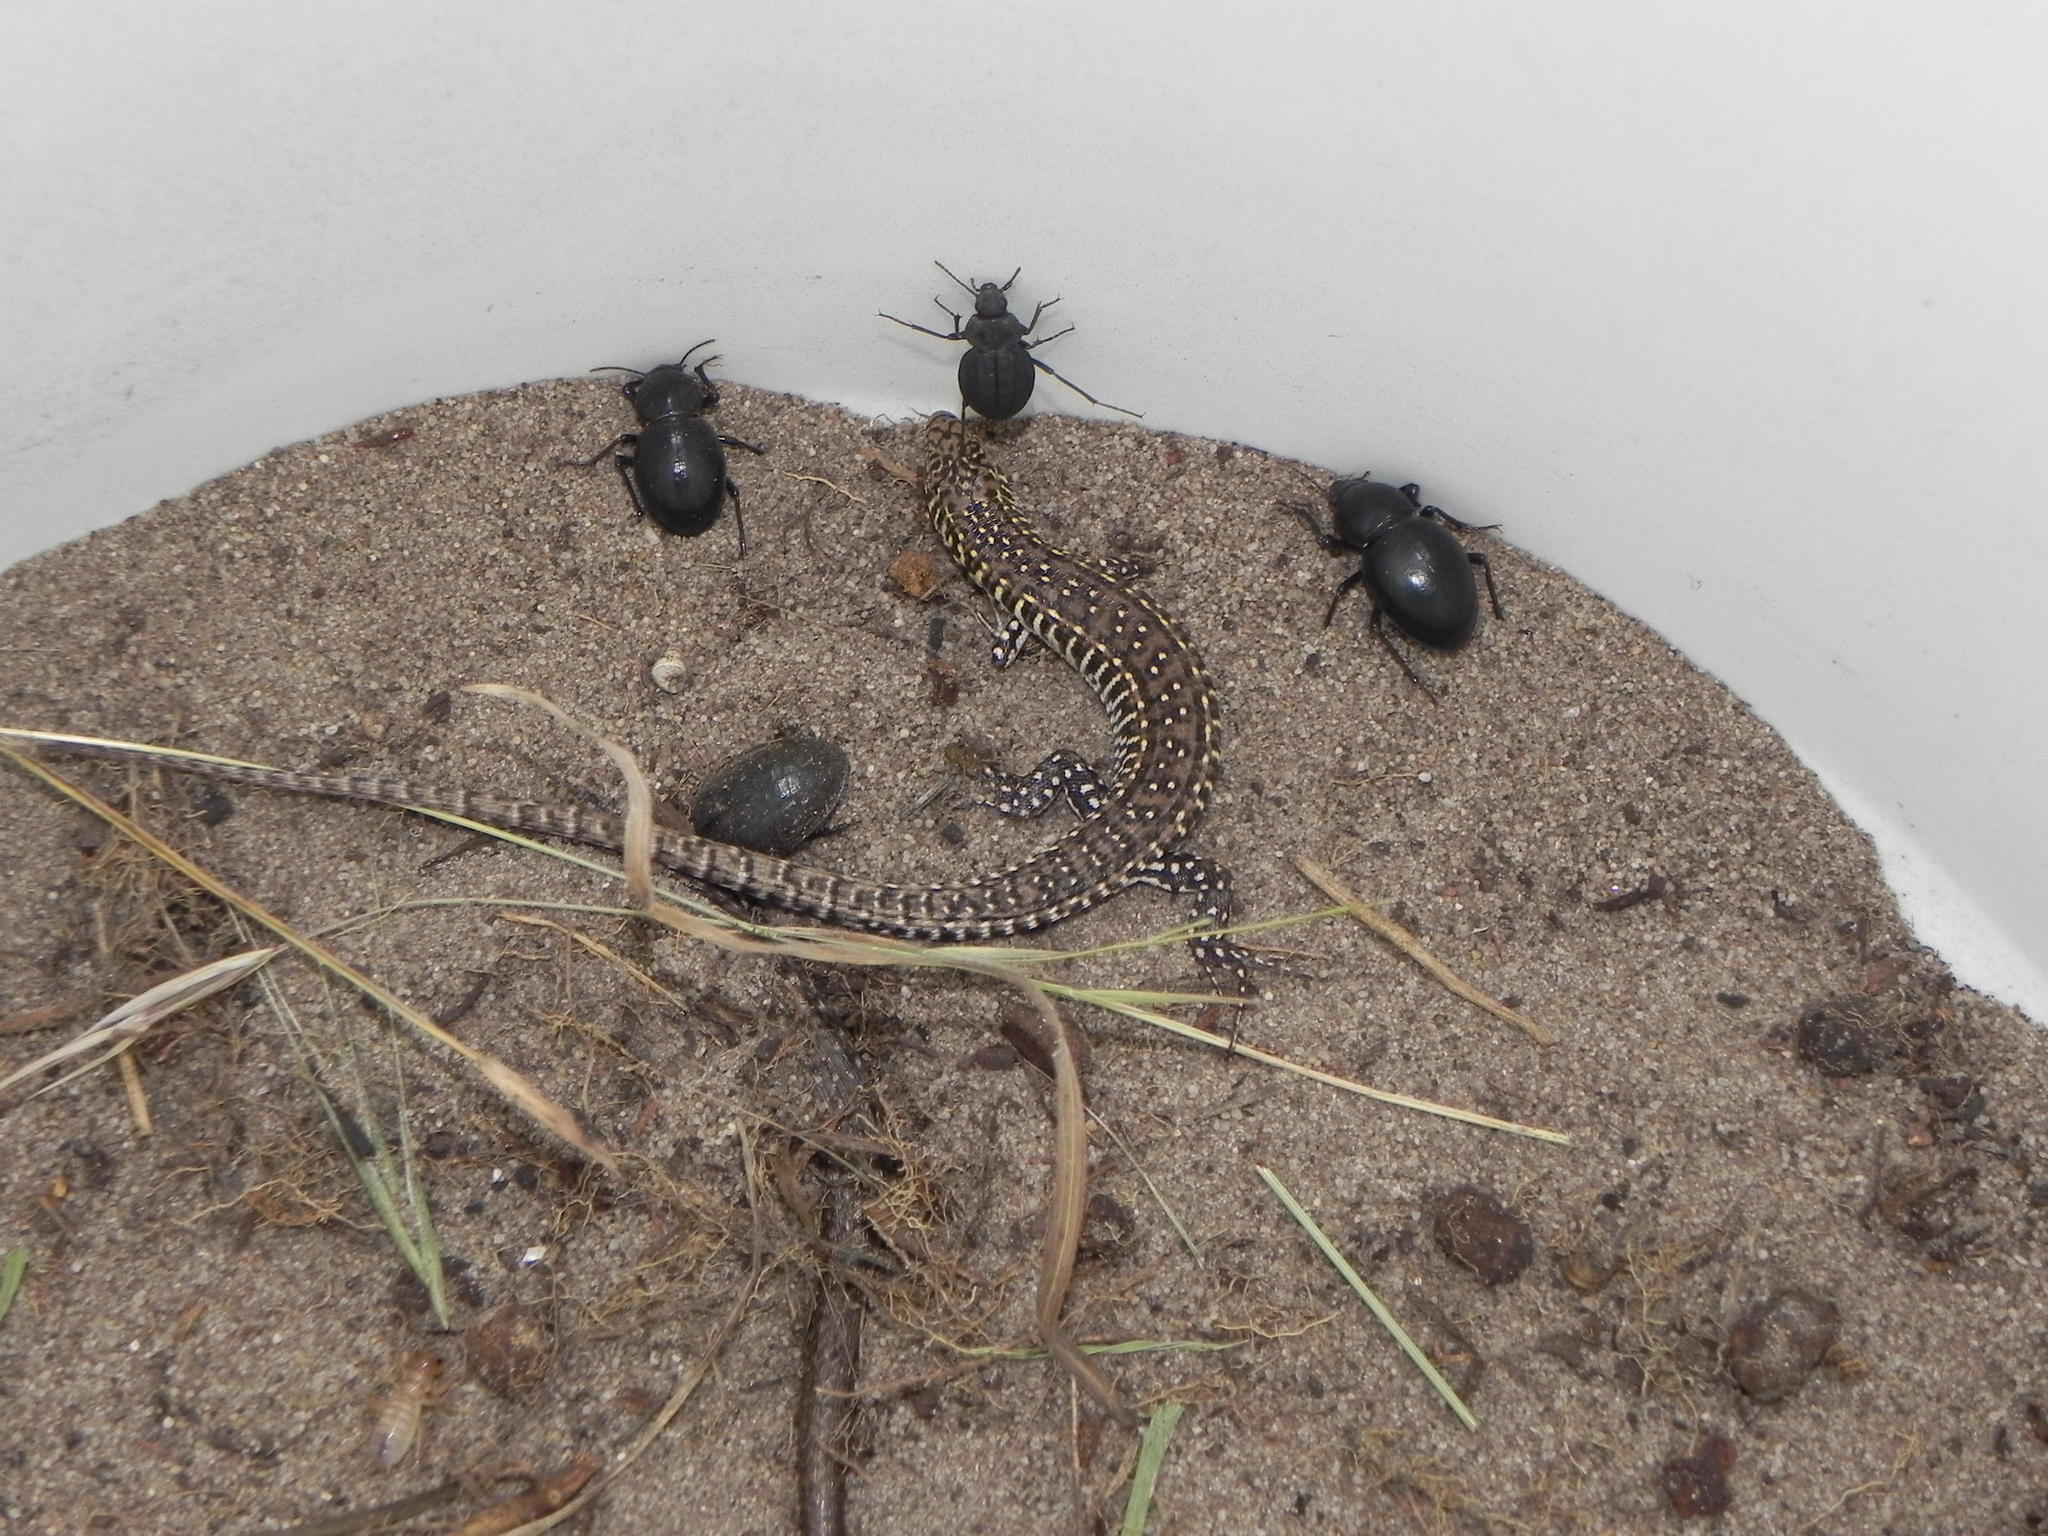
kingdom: Animalia
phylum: Chordata
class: Squamata
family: Gerrhosauridae
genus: Gerrhosaurus
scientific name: Gerrhosaurus flavigularis
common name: Yellow-throated plated lizard
